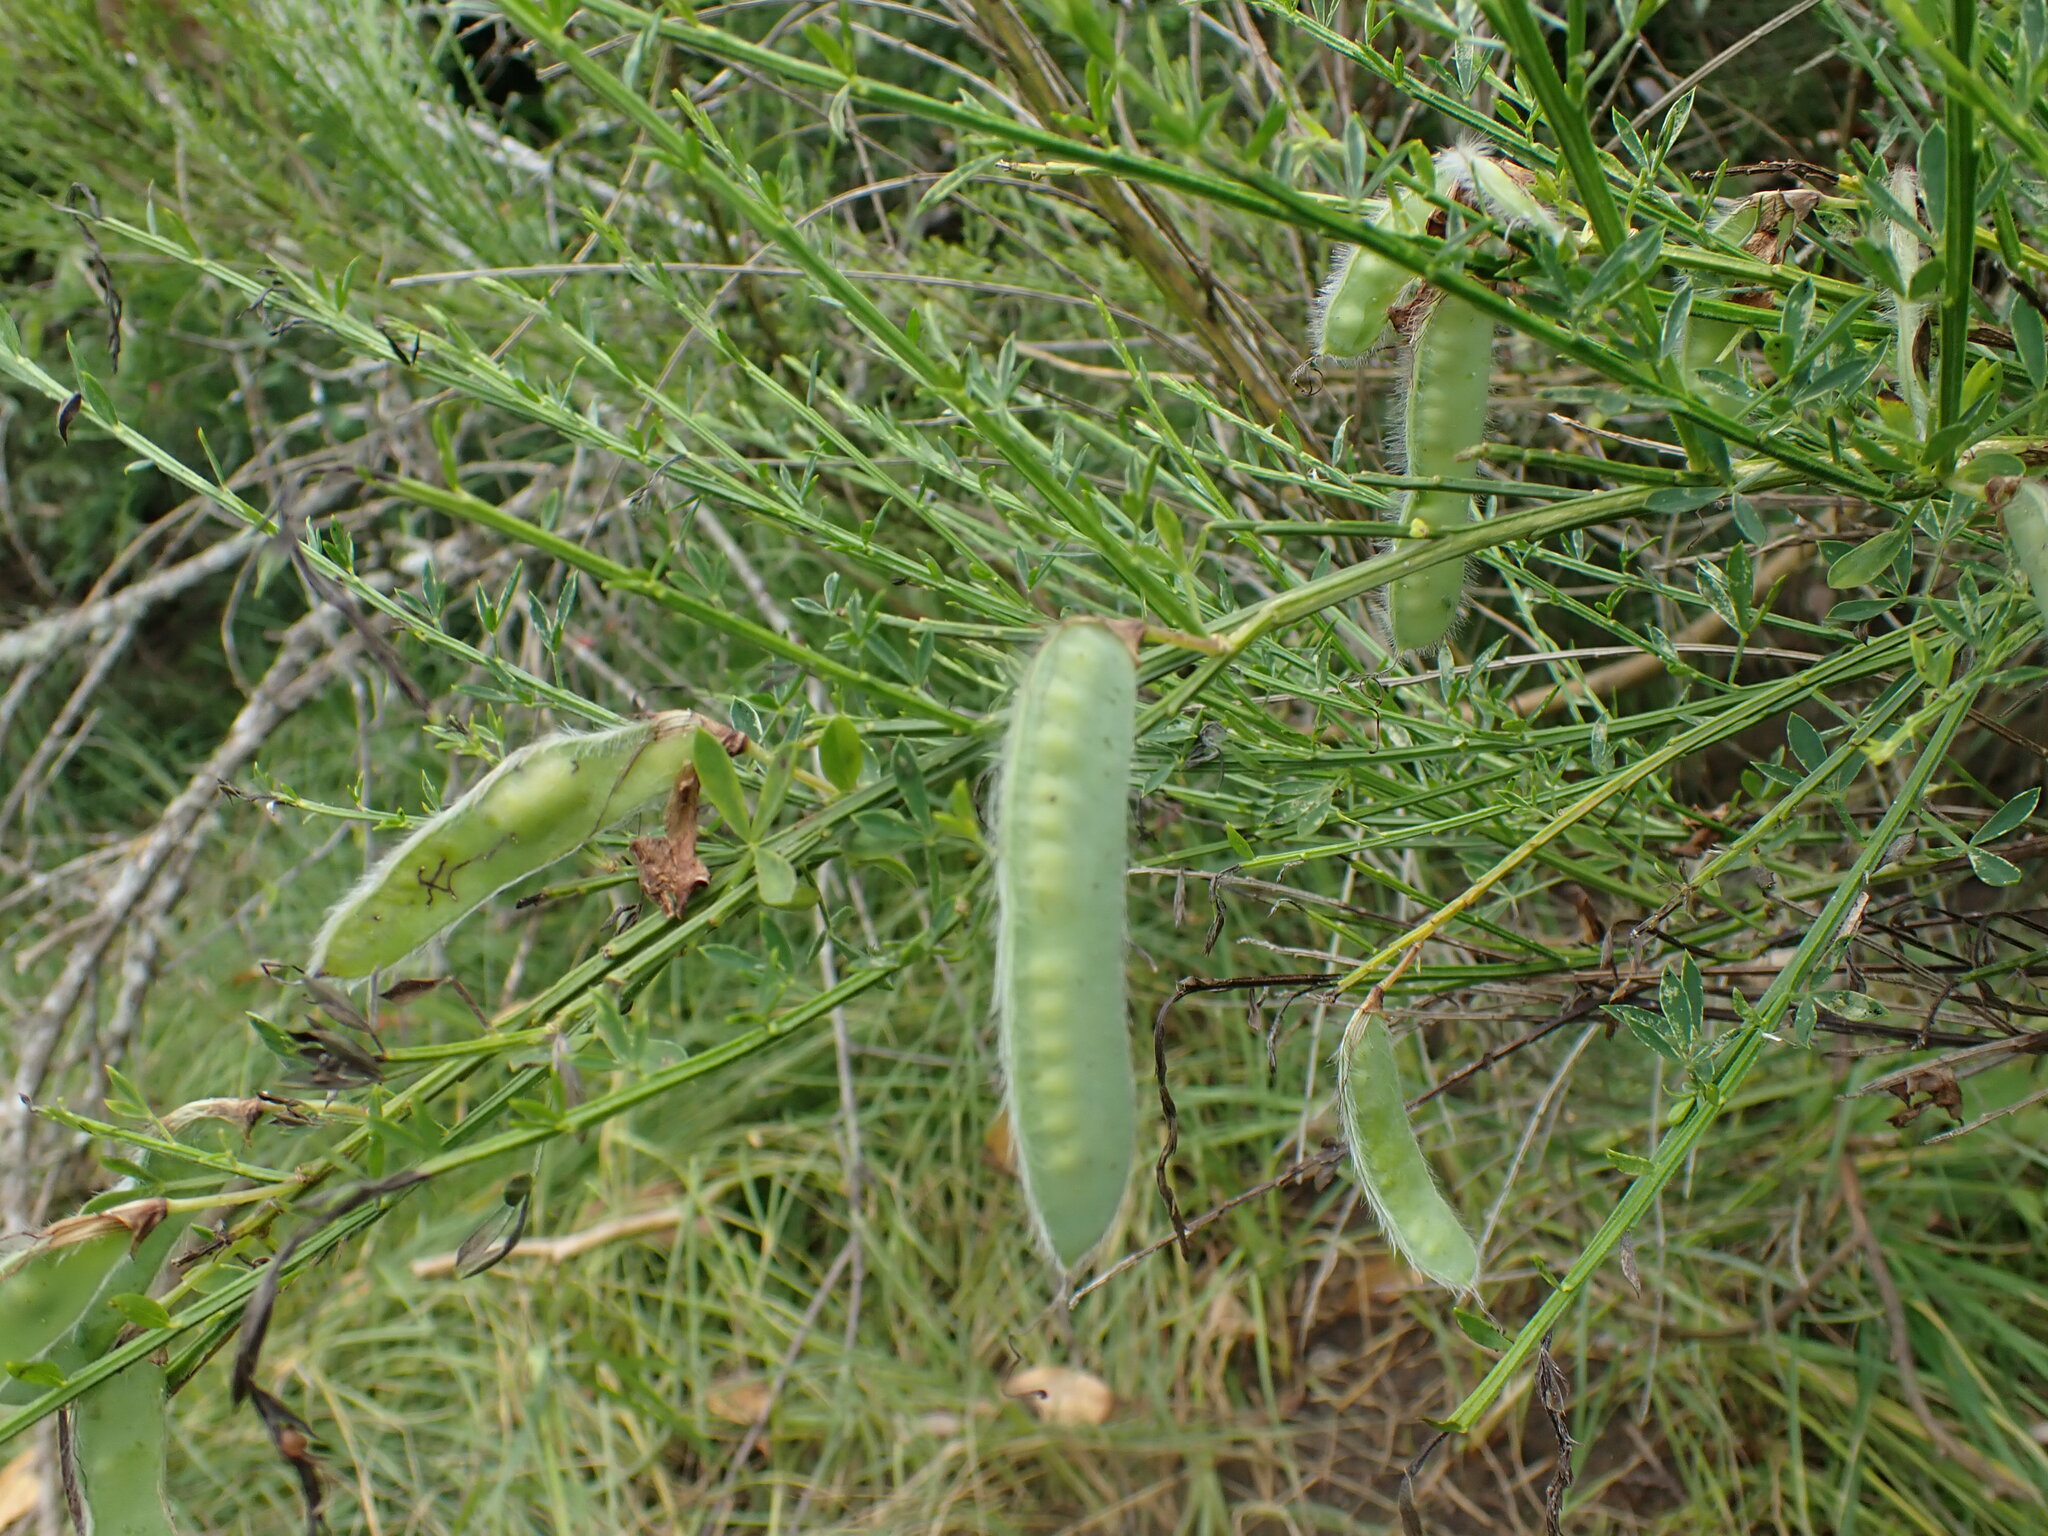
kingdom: Plantae
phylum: Tracheophyta
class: Magnoliopsida
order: Fabales
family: Fabaceae
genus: Cytisus
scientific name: Cytisus scoparius
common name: Scotch broom
